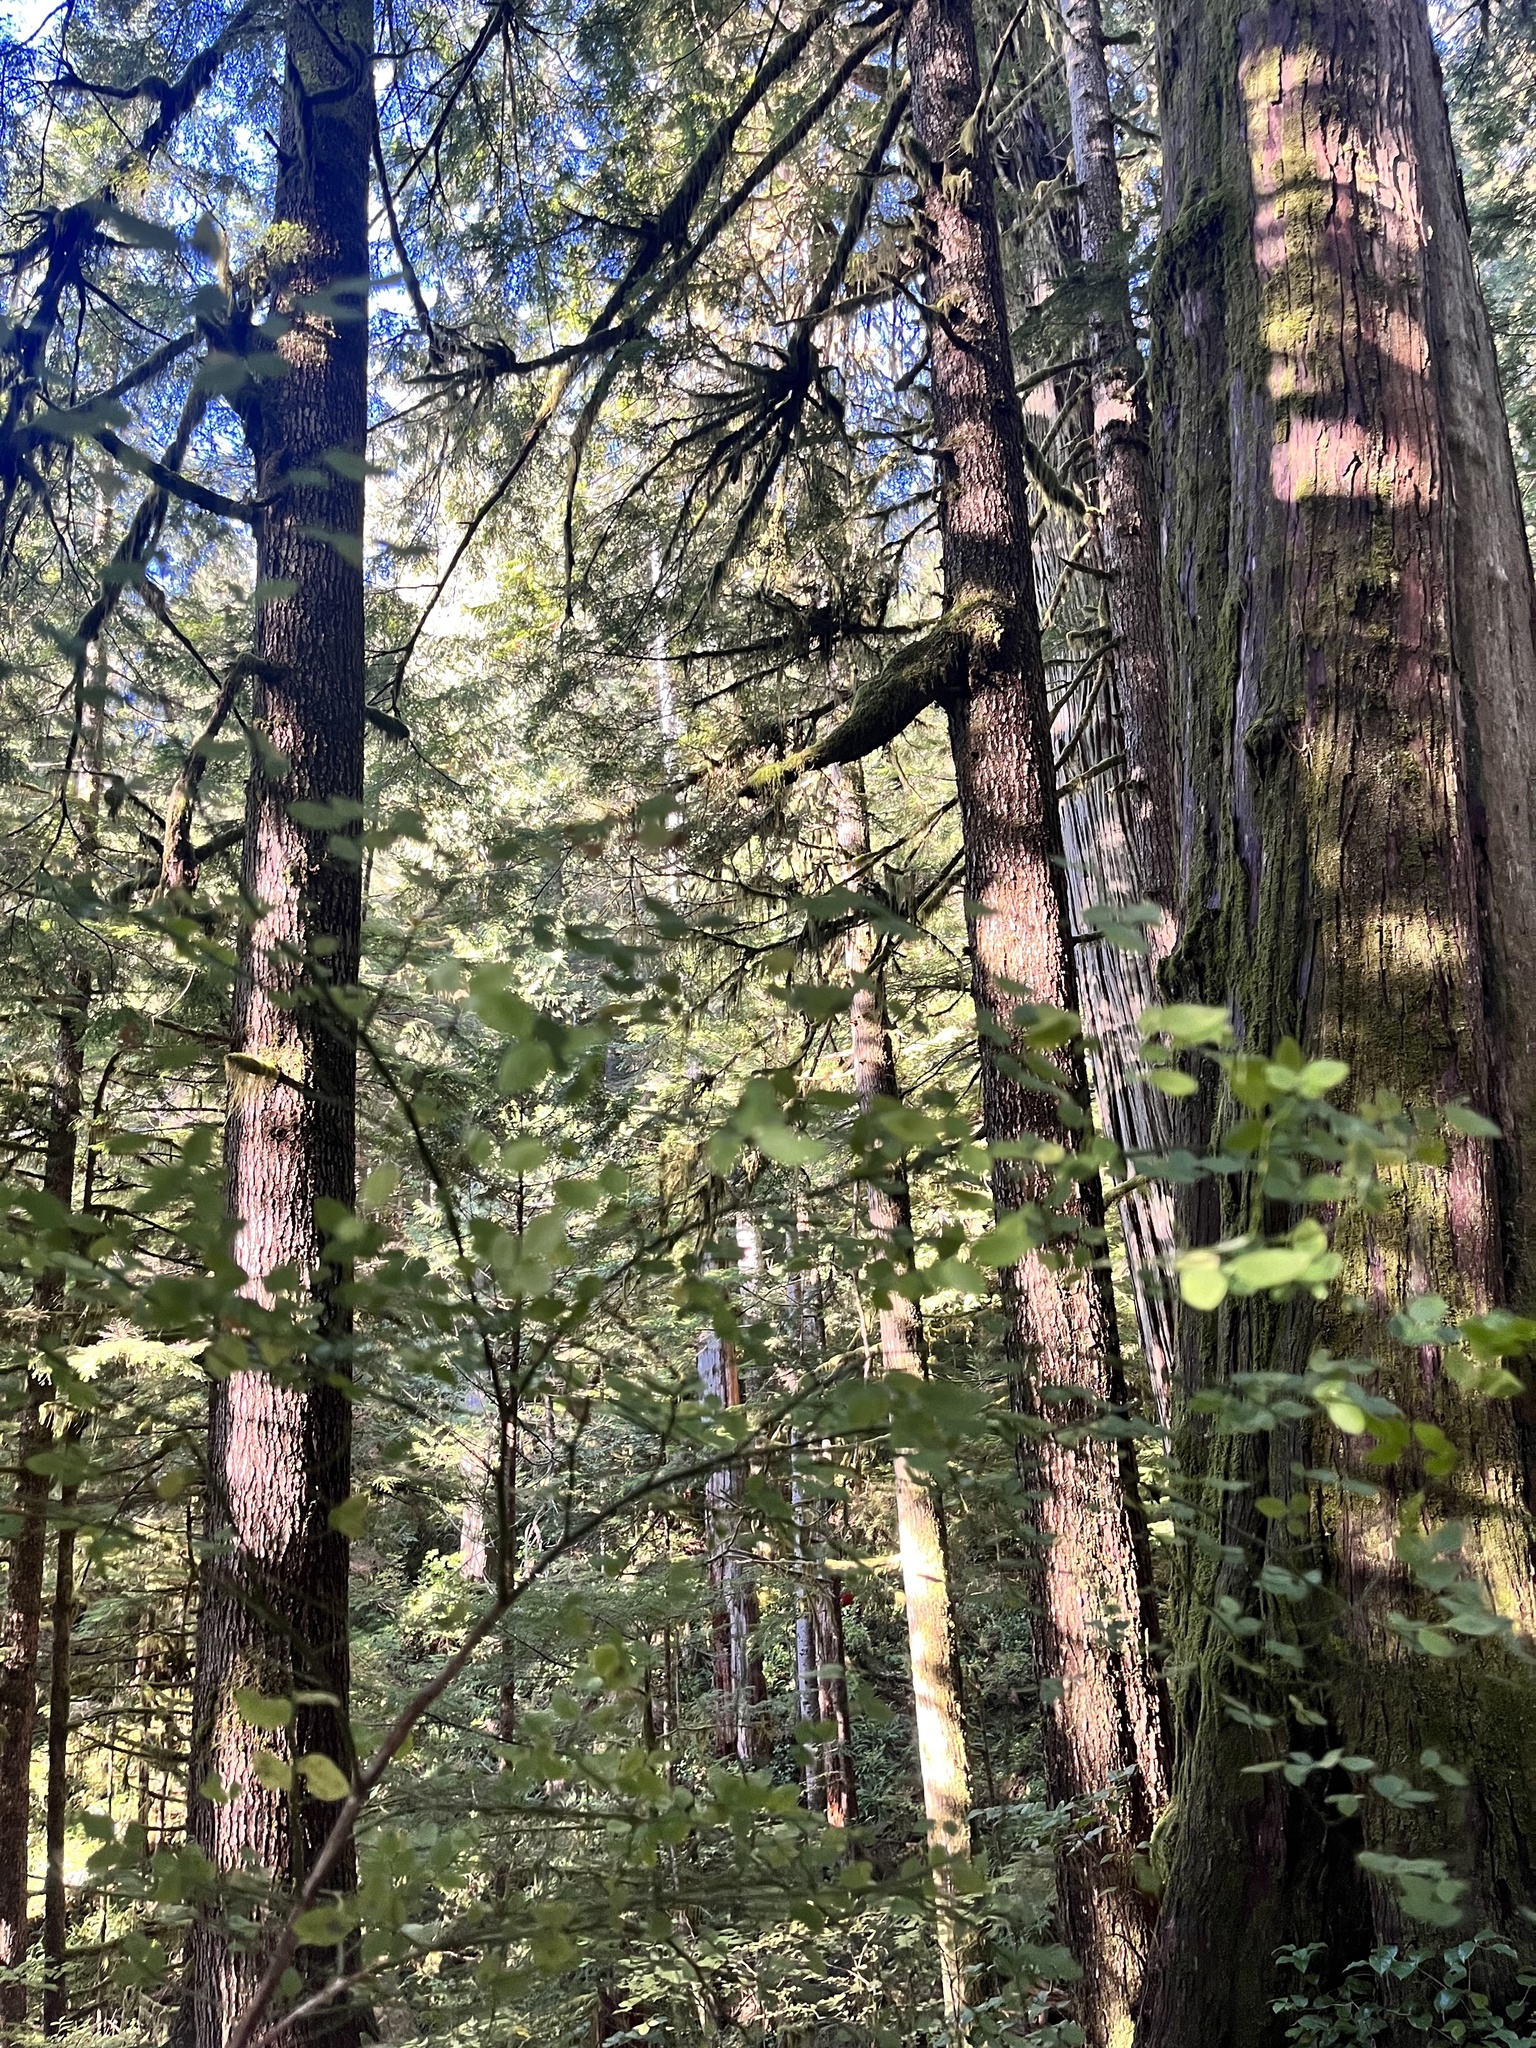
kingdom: Plantae
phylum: Tracheophyta
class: Magnoliopsida
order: Ericales
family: Ericaceae
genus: Vaccinium
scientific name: Vaccinium parvifolium
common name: Red-huckleberry
